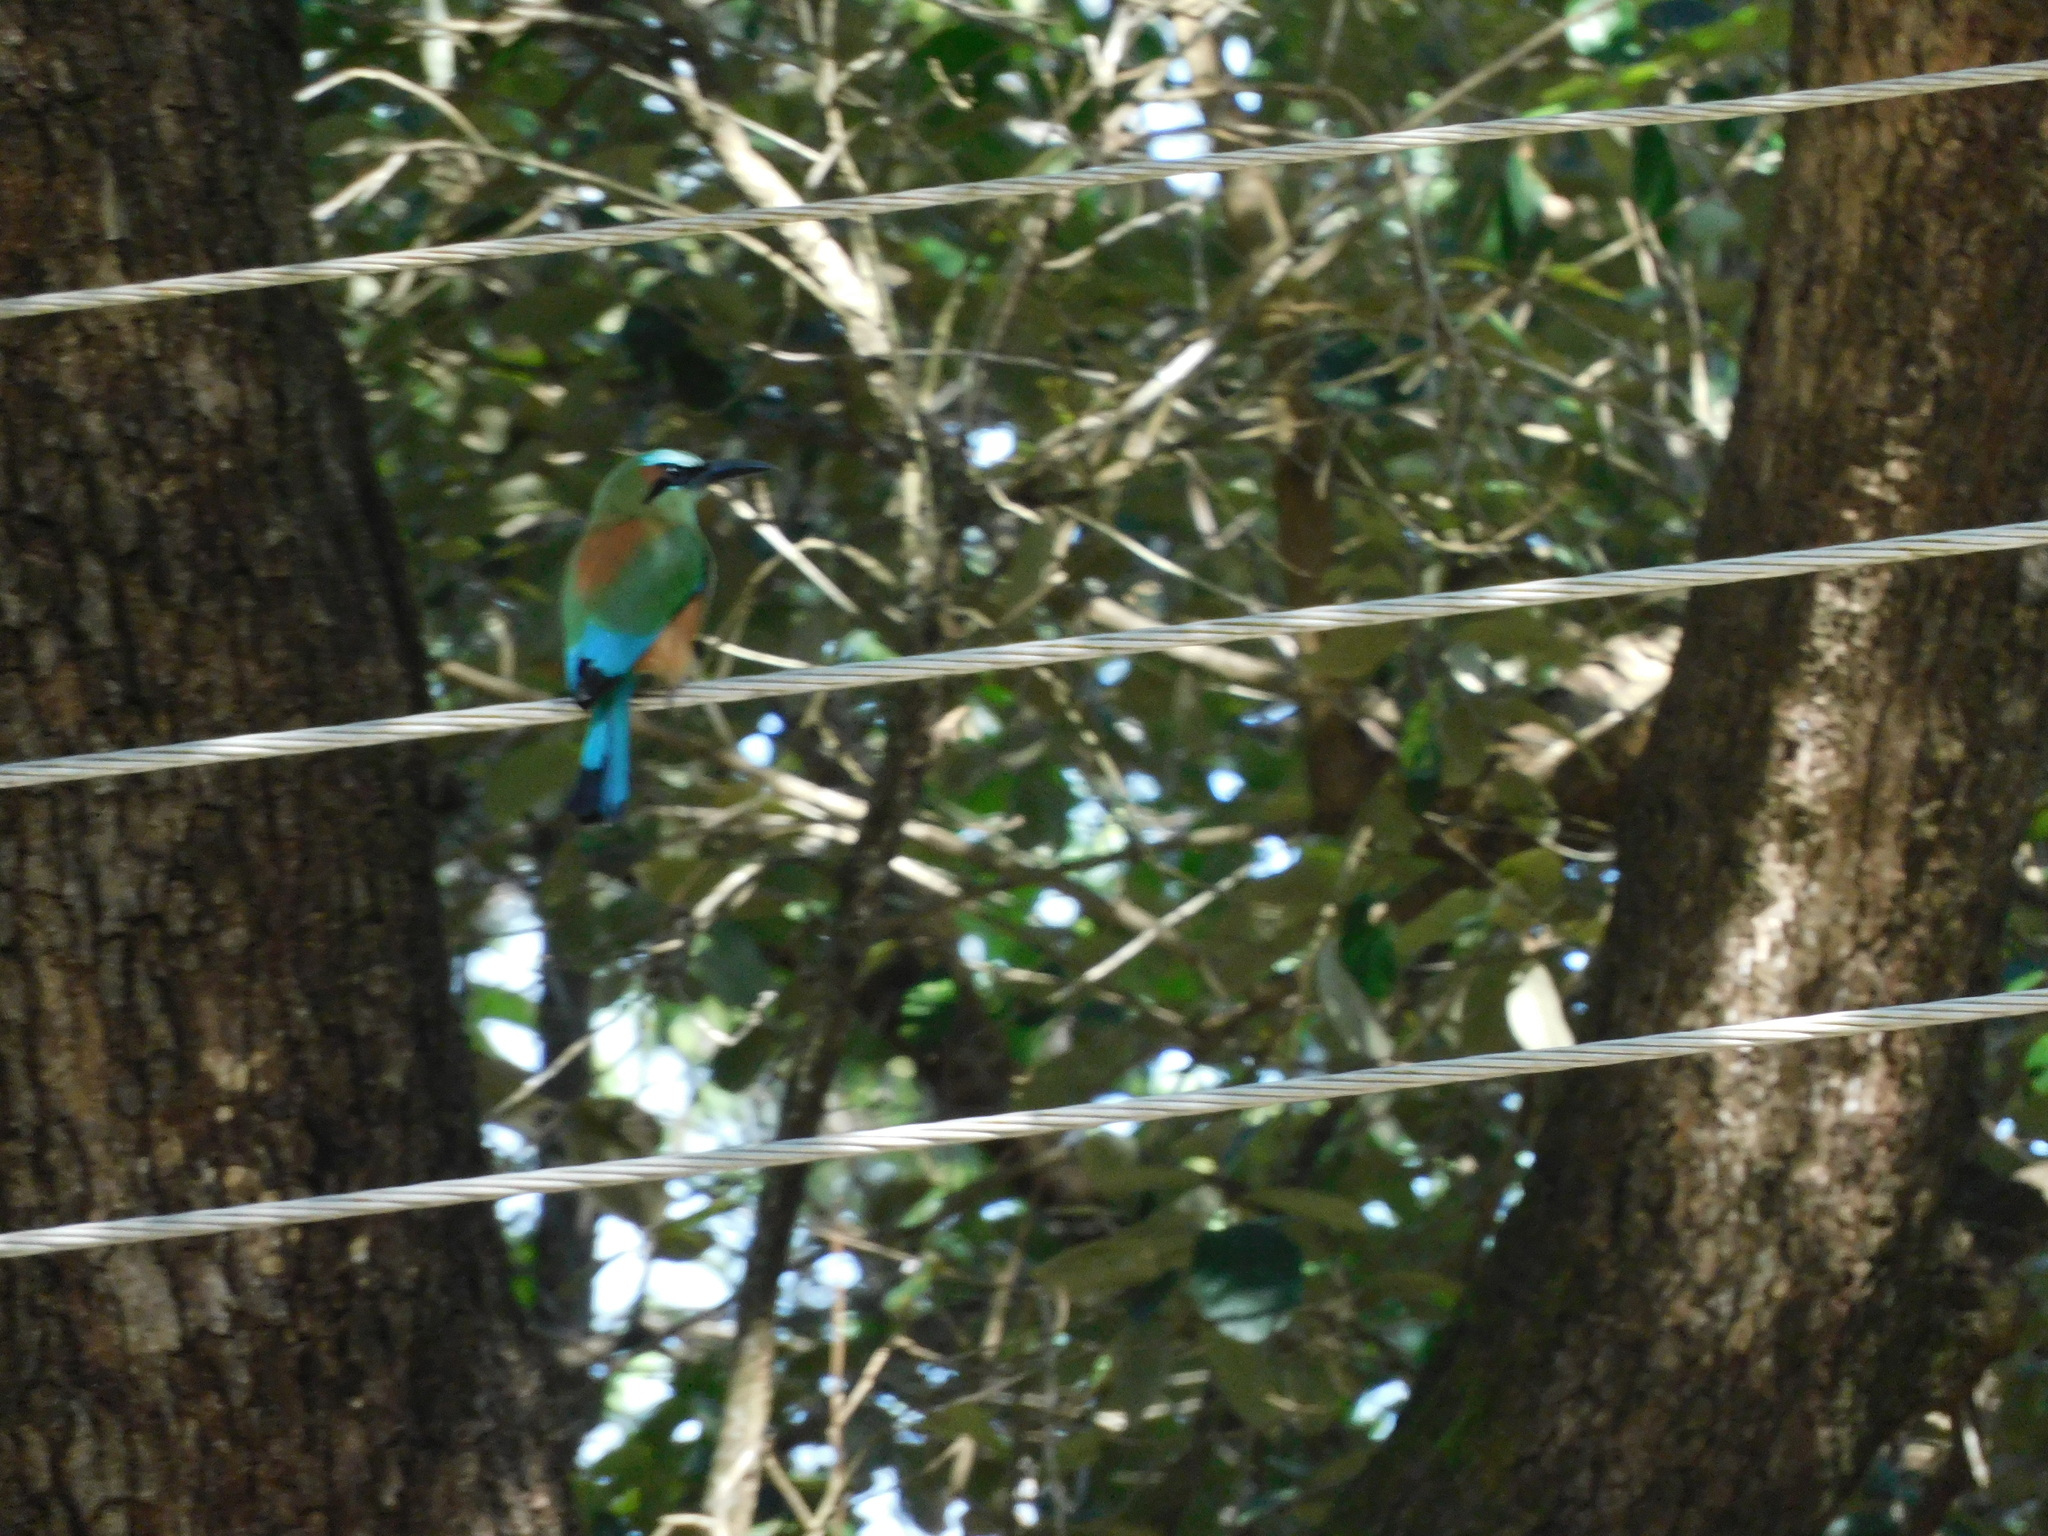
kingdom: Animalia
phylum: Chordata
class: Aves
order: Coraciiformes
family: Momotidae
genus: Eumomota
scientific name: Eumomota superciliosa
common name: Turquoise-browed motmot
